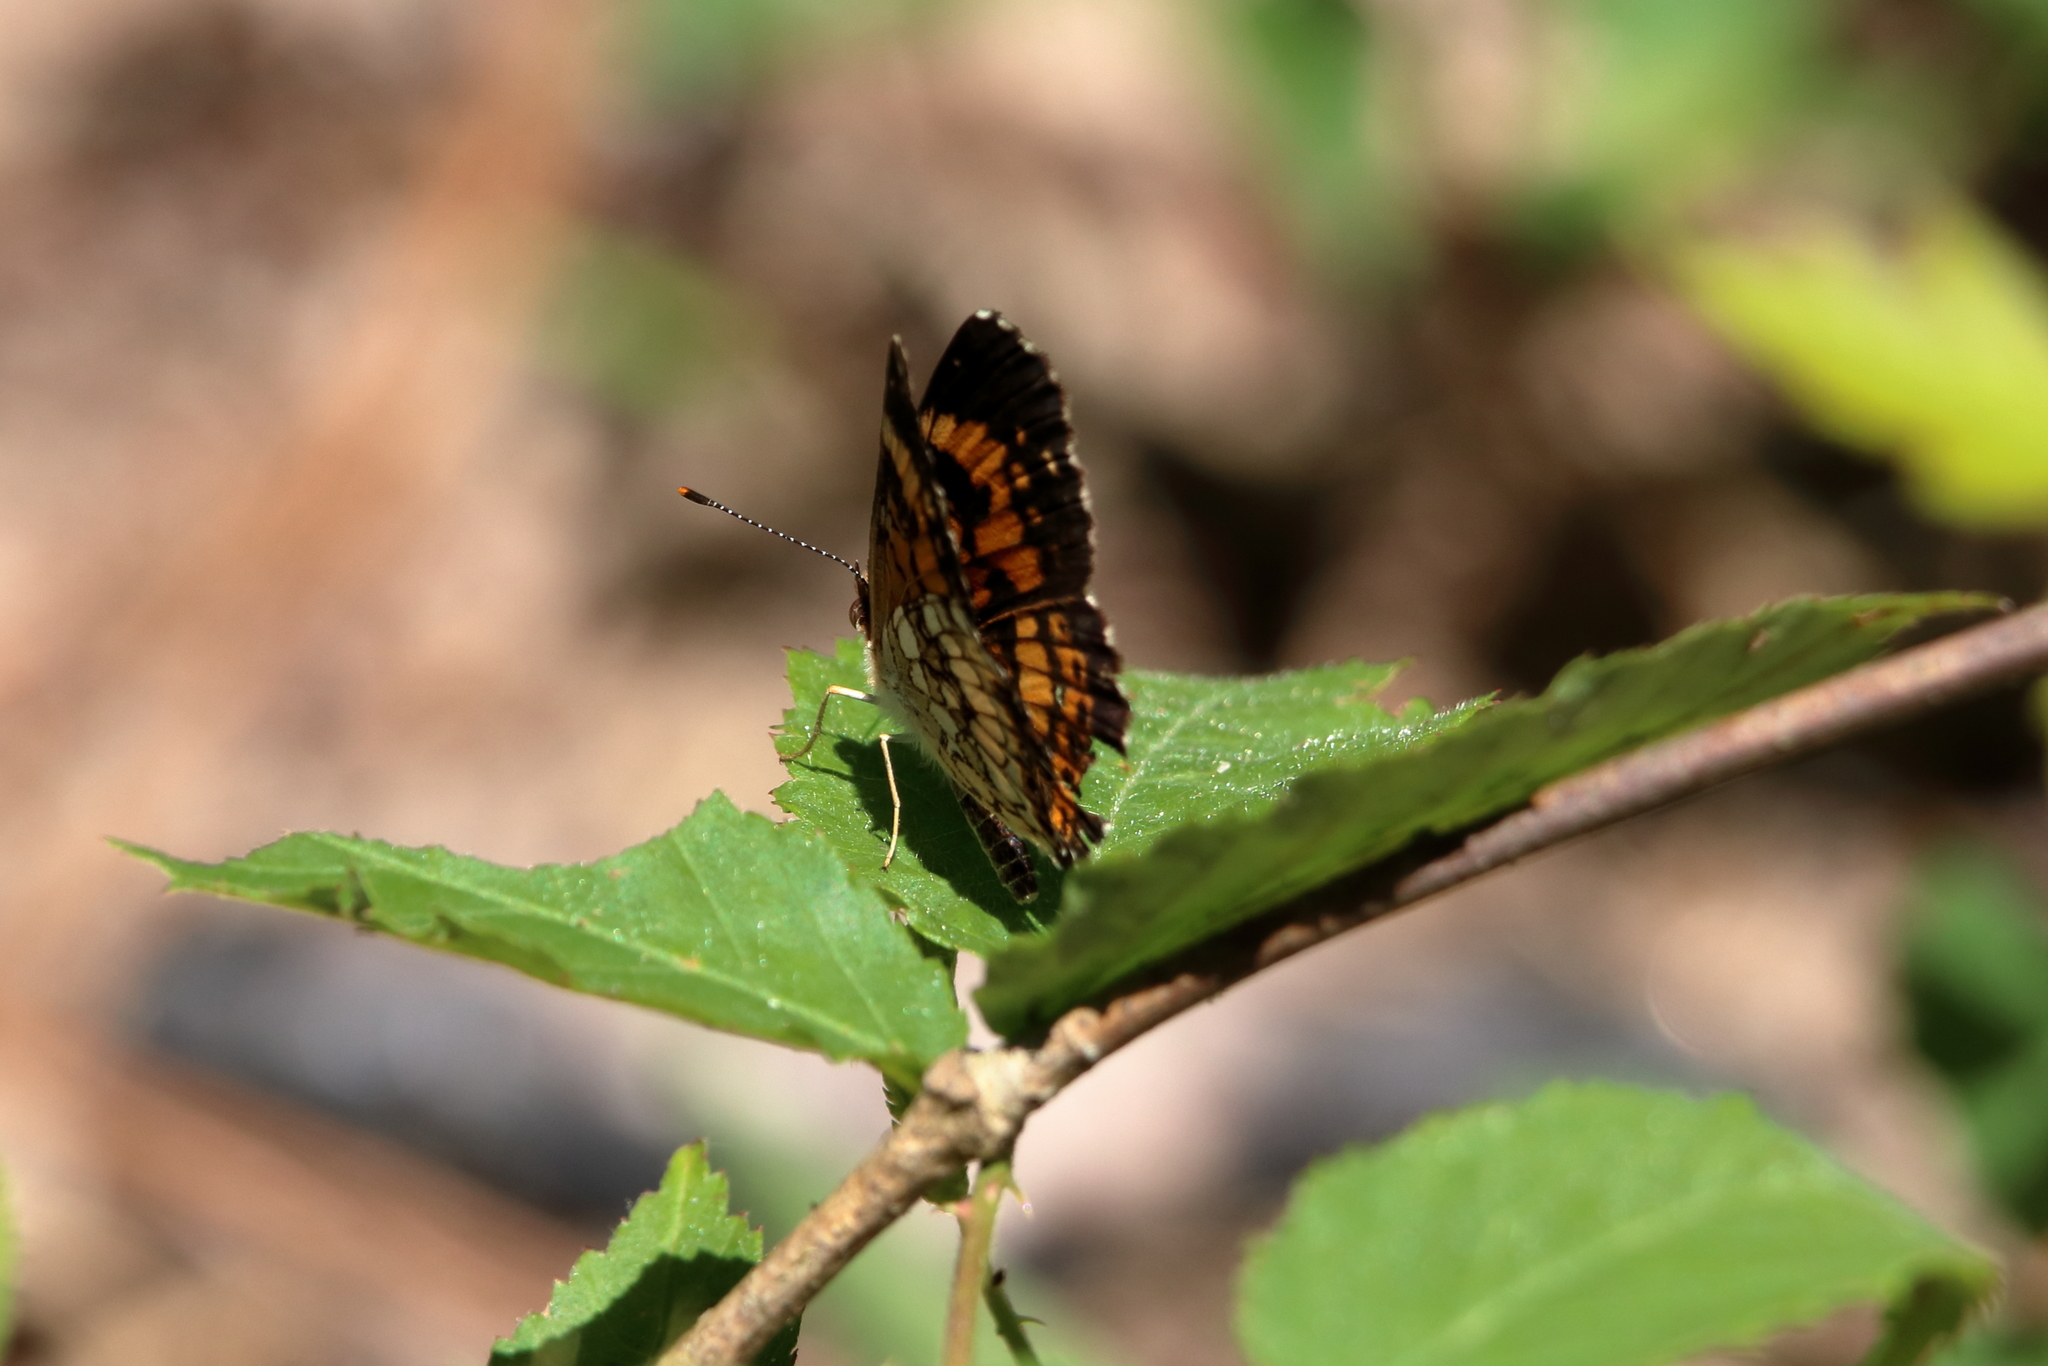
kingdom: Animalia
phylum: Arthropoda
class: Insecta
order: Lepidoptera
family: Nymphalidae
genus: Chlosyne
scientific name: Chlosyne nycteis
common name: Silvery checkerspot
